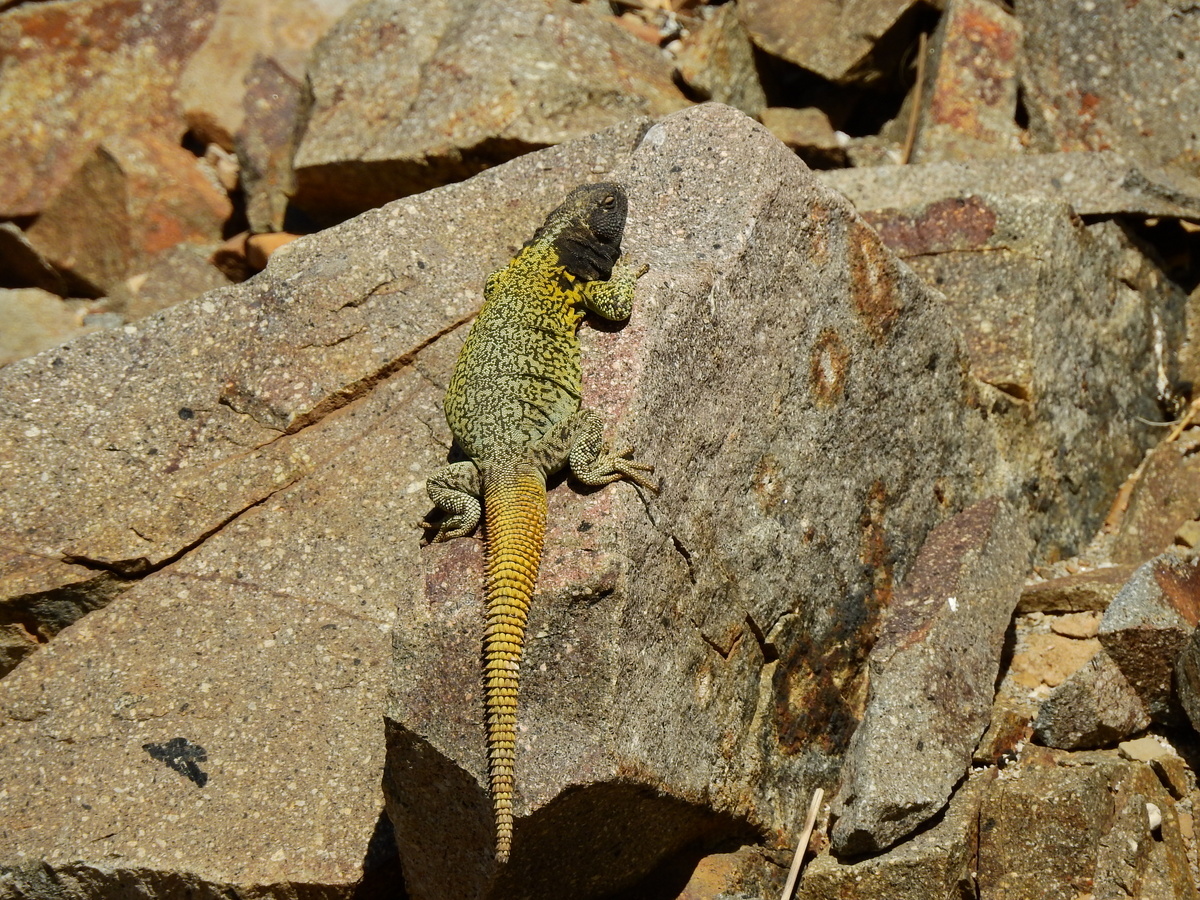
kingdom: Animalia
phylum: Chordata
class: Squamata
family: Liolaemidae
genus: Phymaturus
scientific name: Phymaturus verdugo
